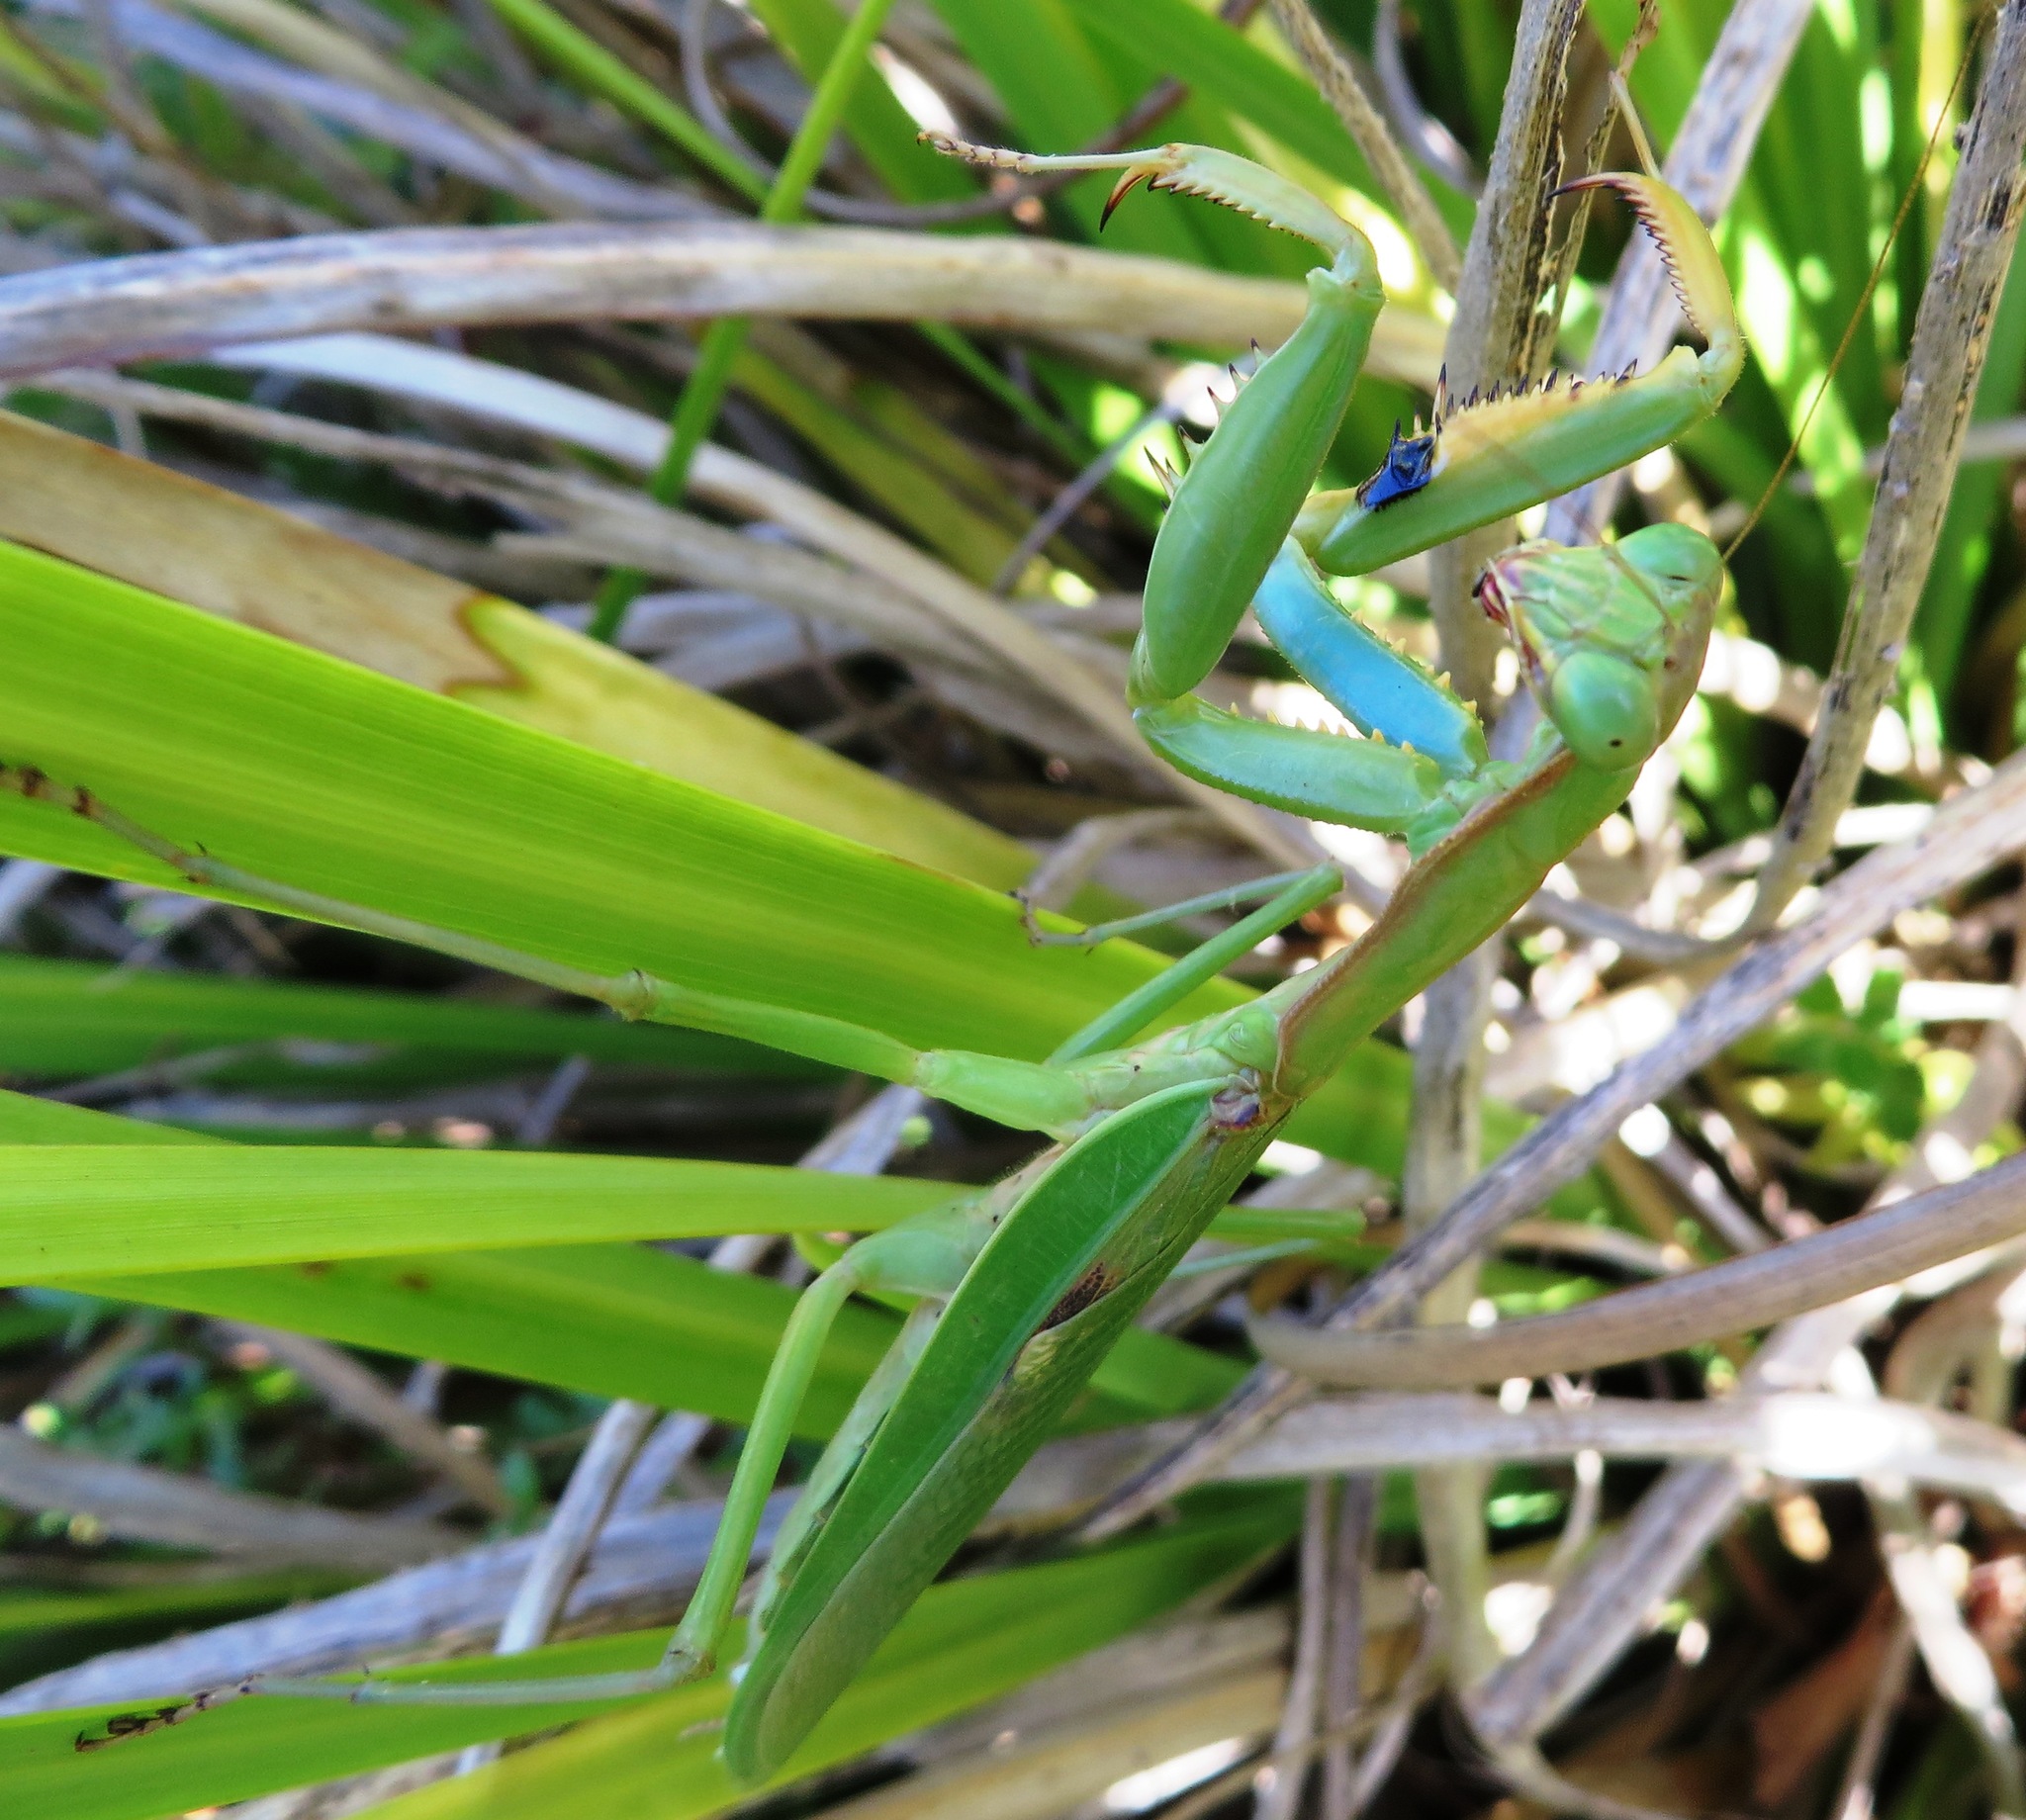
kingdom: Animalia
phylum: Arthropoda
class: Insecta
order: Mantodea
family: Mantidae
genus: Polyspilota
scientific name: Polyspilota aeruginosa
